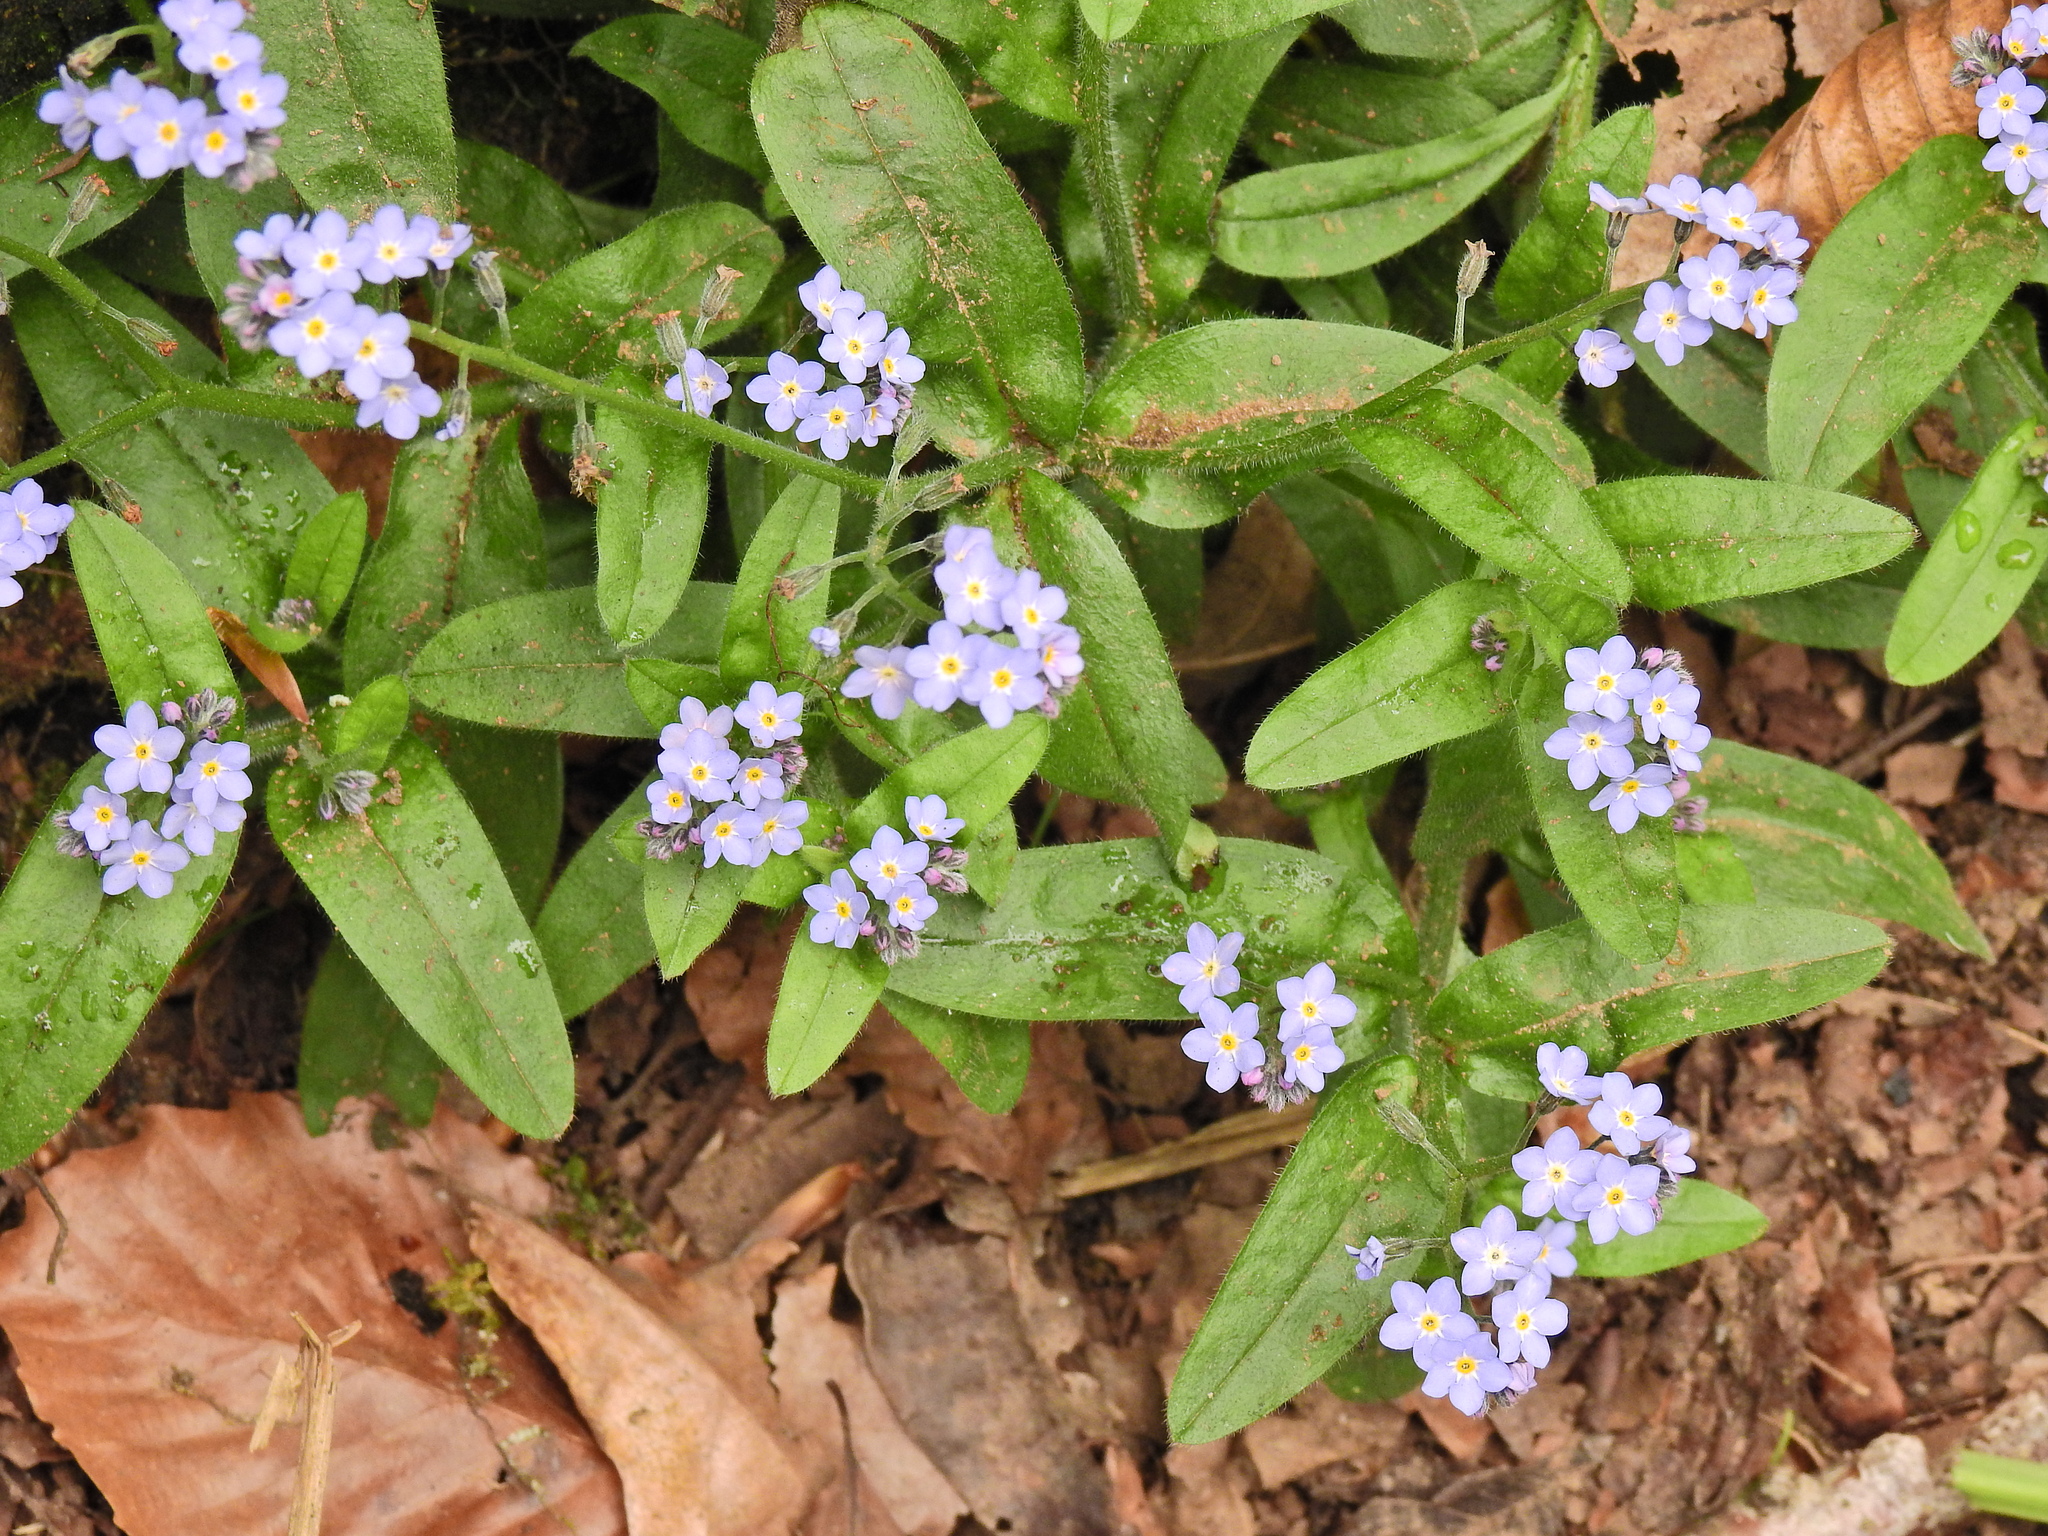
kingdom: Plantae
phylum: Tracheophyta
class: Magnoliopsida
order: Boraginales
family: Boraginaceae
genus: Myosotis
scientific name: Myosotis sylvatica
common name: Wood forget-me-not
